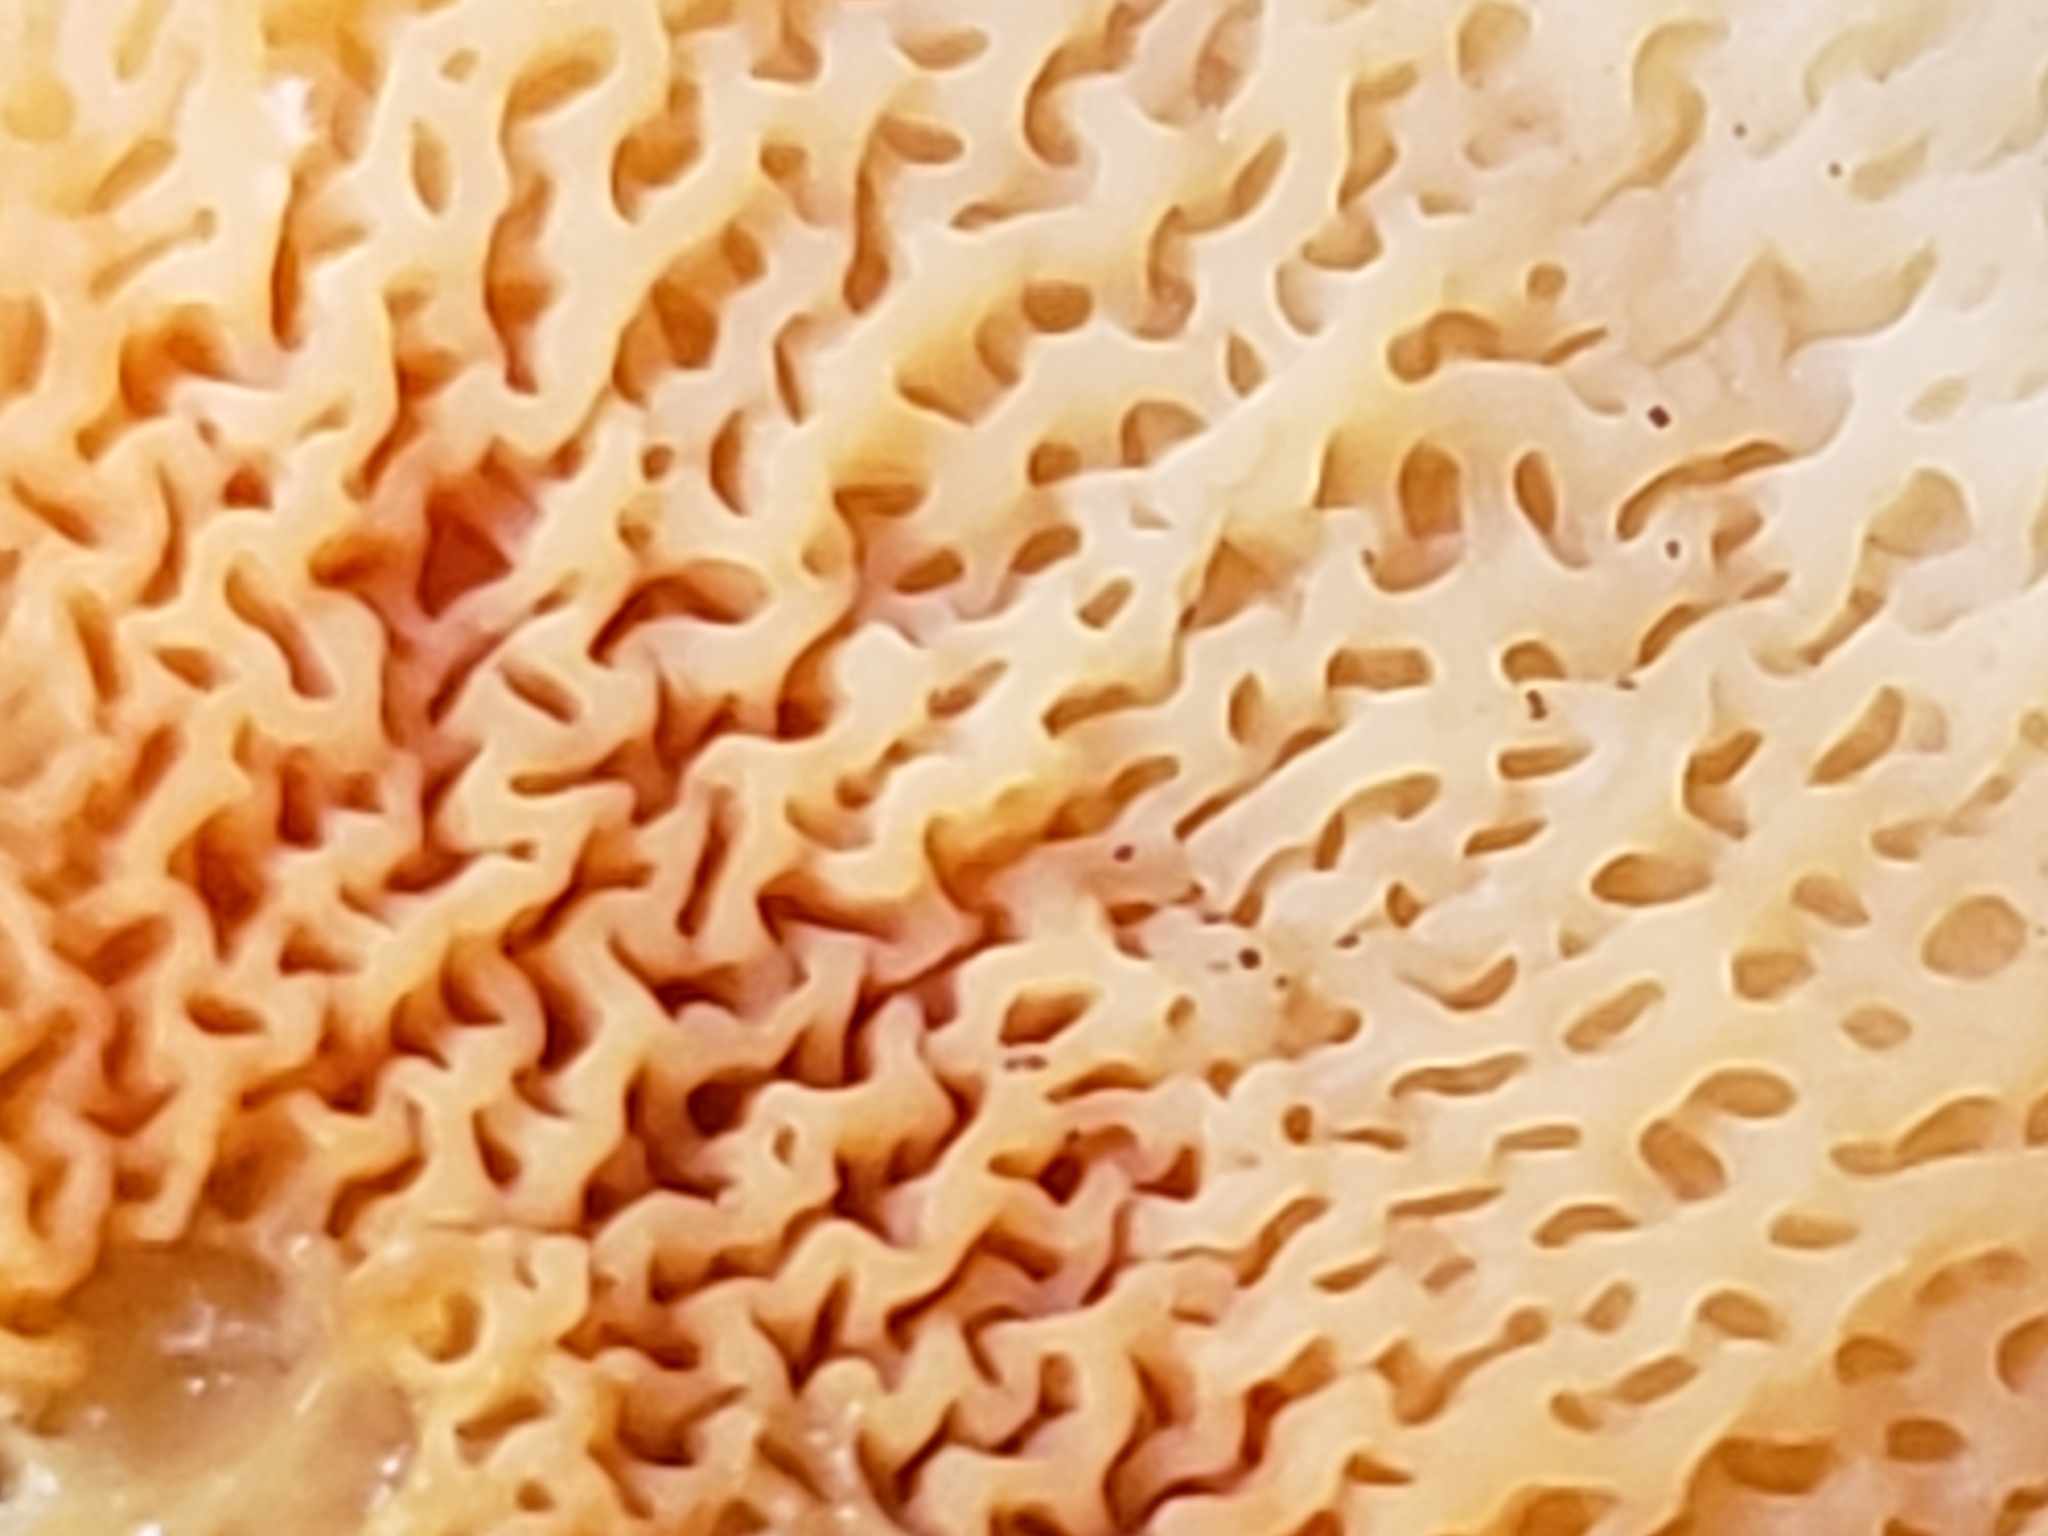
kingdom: Fungi
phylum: Basidiomycota
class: Agaricomycetes
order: Polyporales
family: Meruliaceae
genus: Phlebia
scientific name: Phlebia tremellosa
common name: Jelly rot
